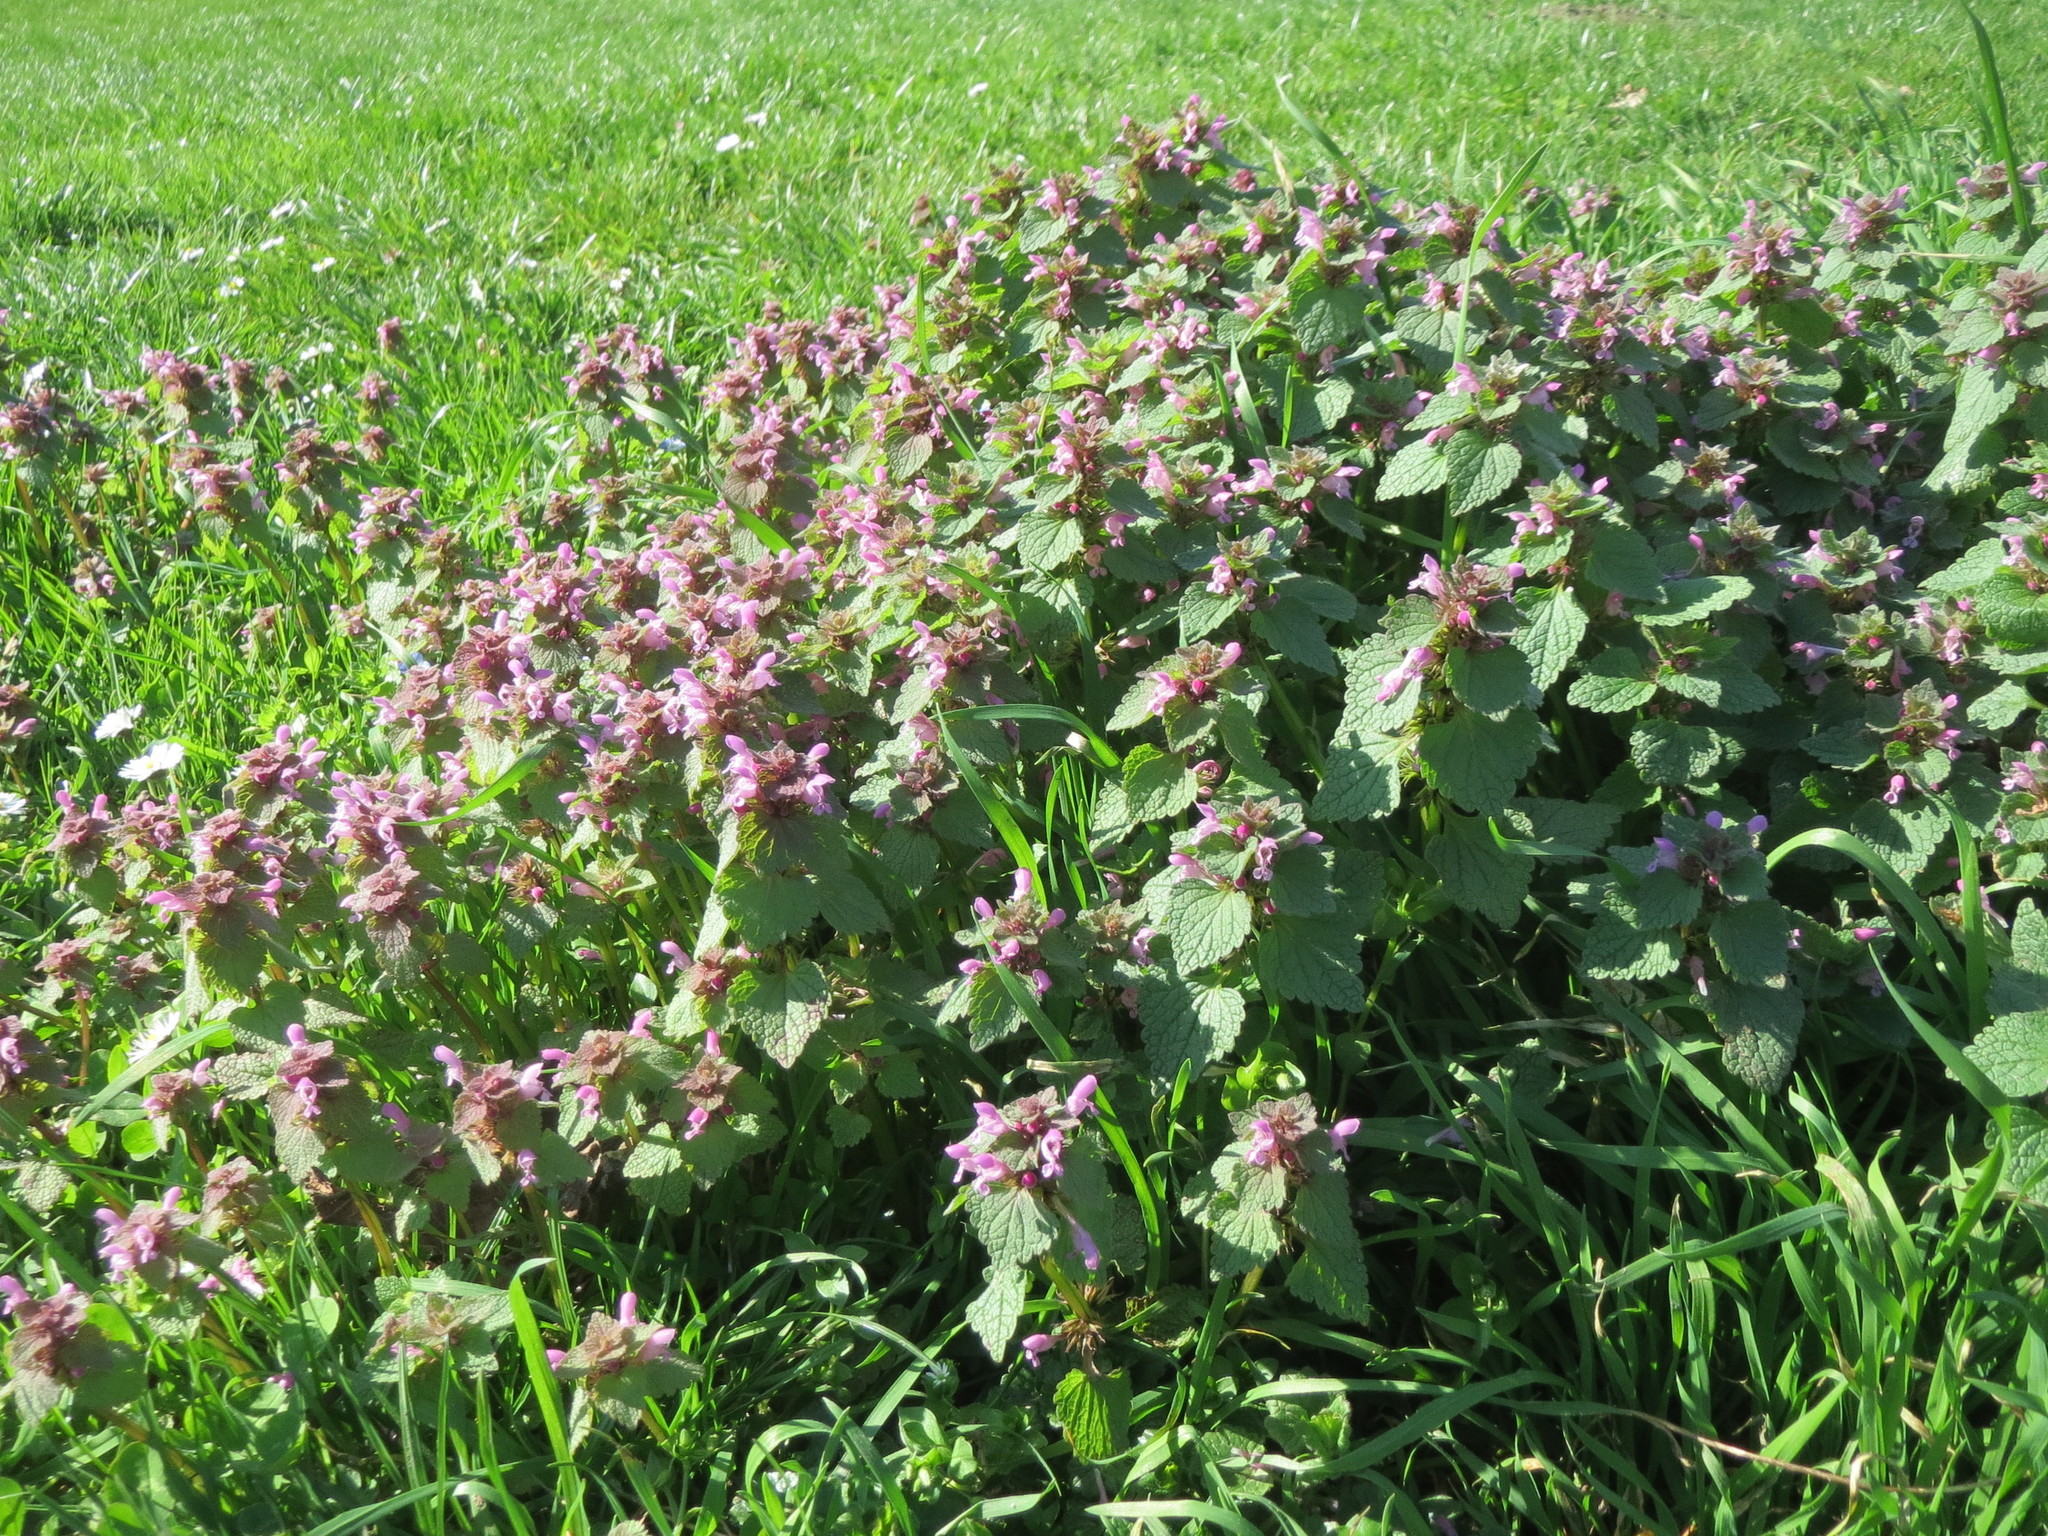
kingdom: Plantae
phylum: Tracheophyta
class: Magnoliopsida
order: Lamiales
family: Lamiaceae
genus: Lamium
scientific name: Lamium purpureum
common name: Red dead-nettle
